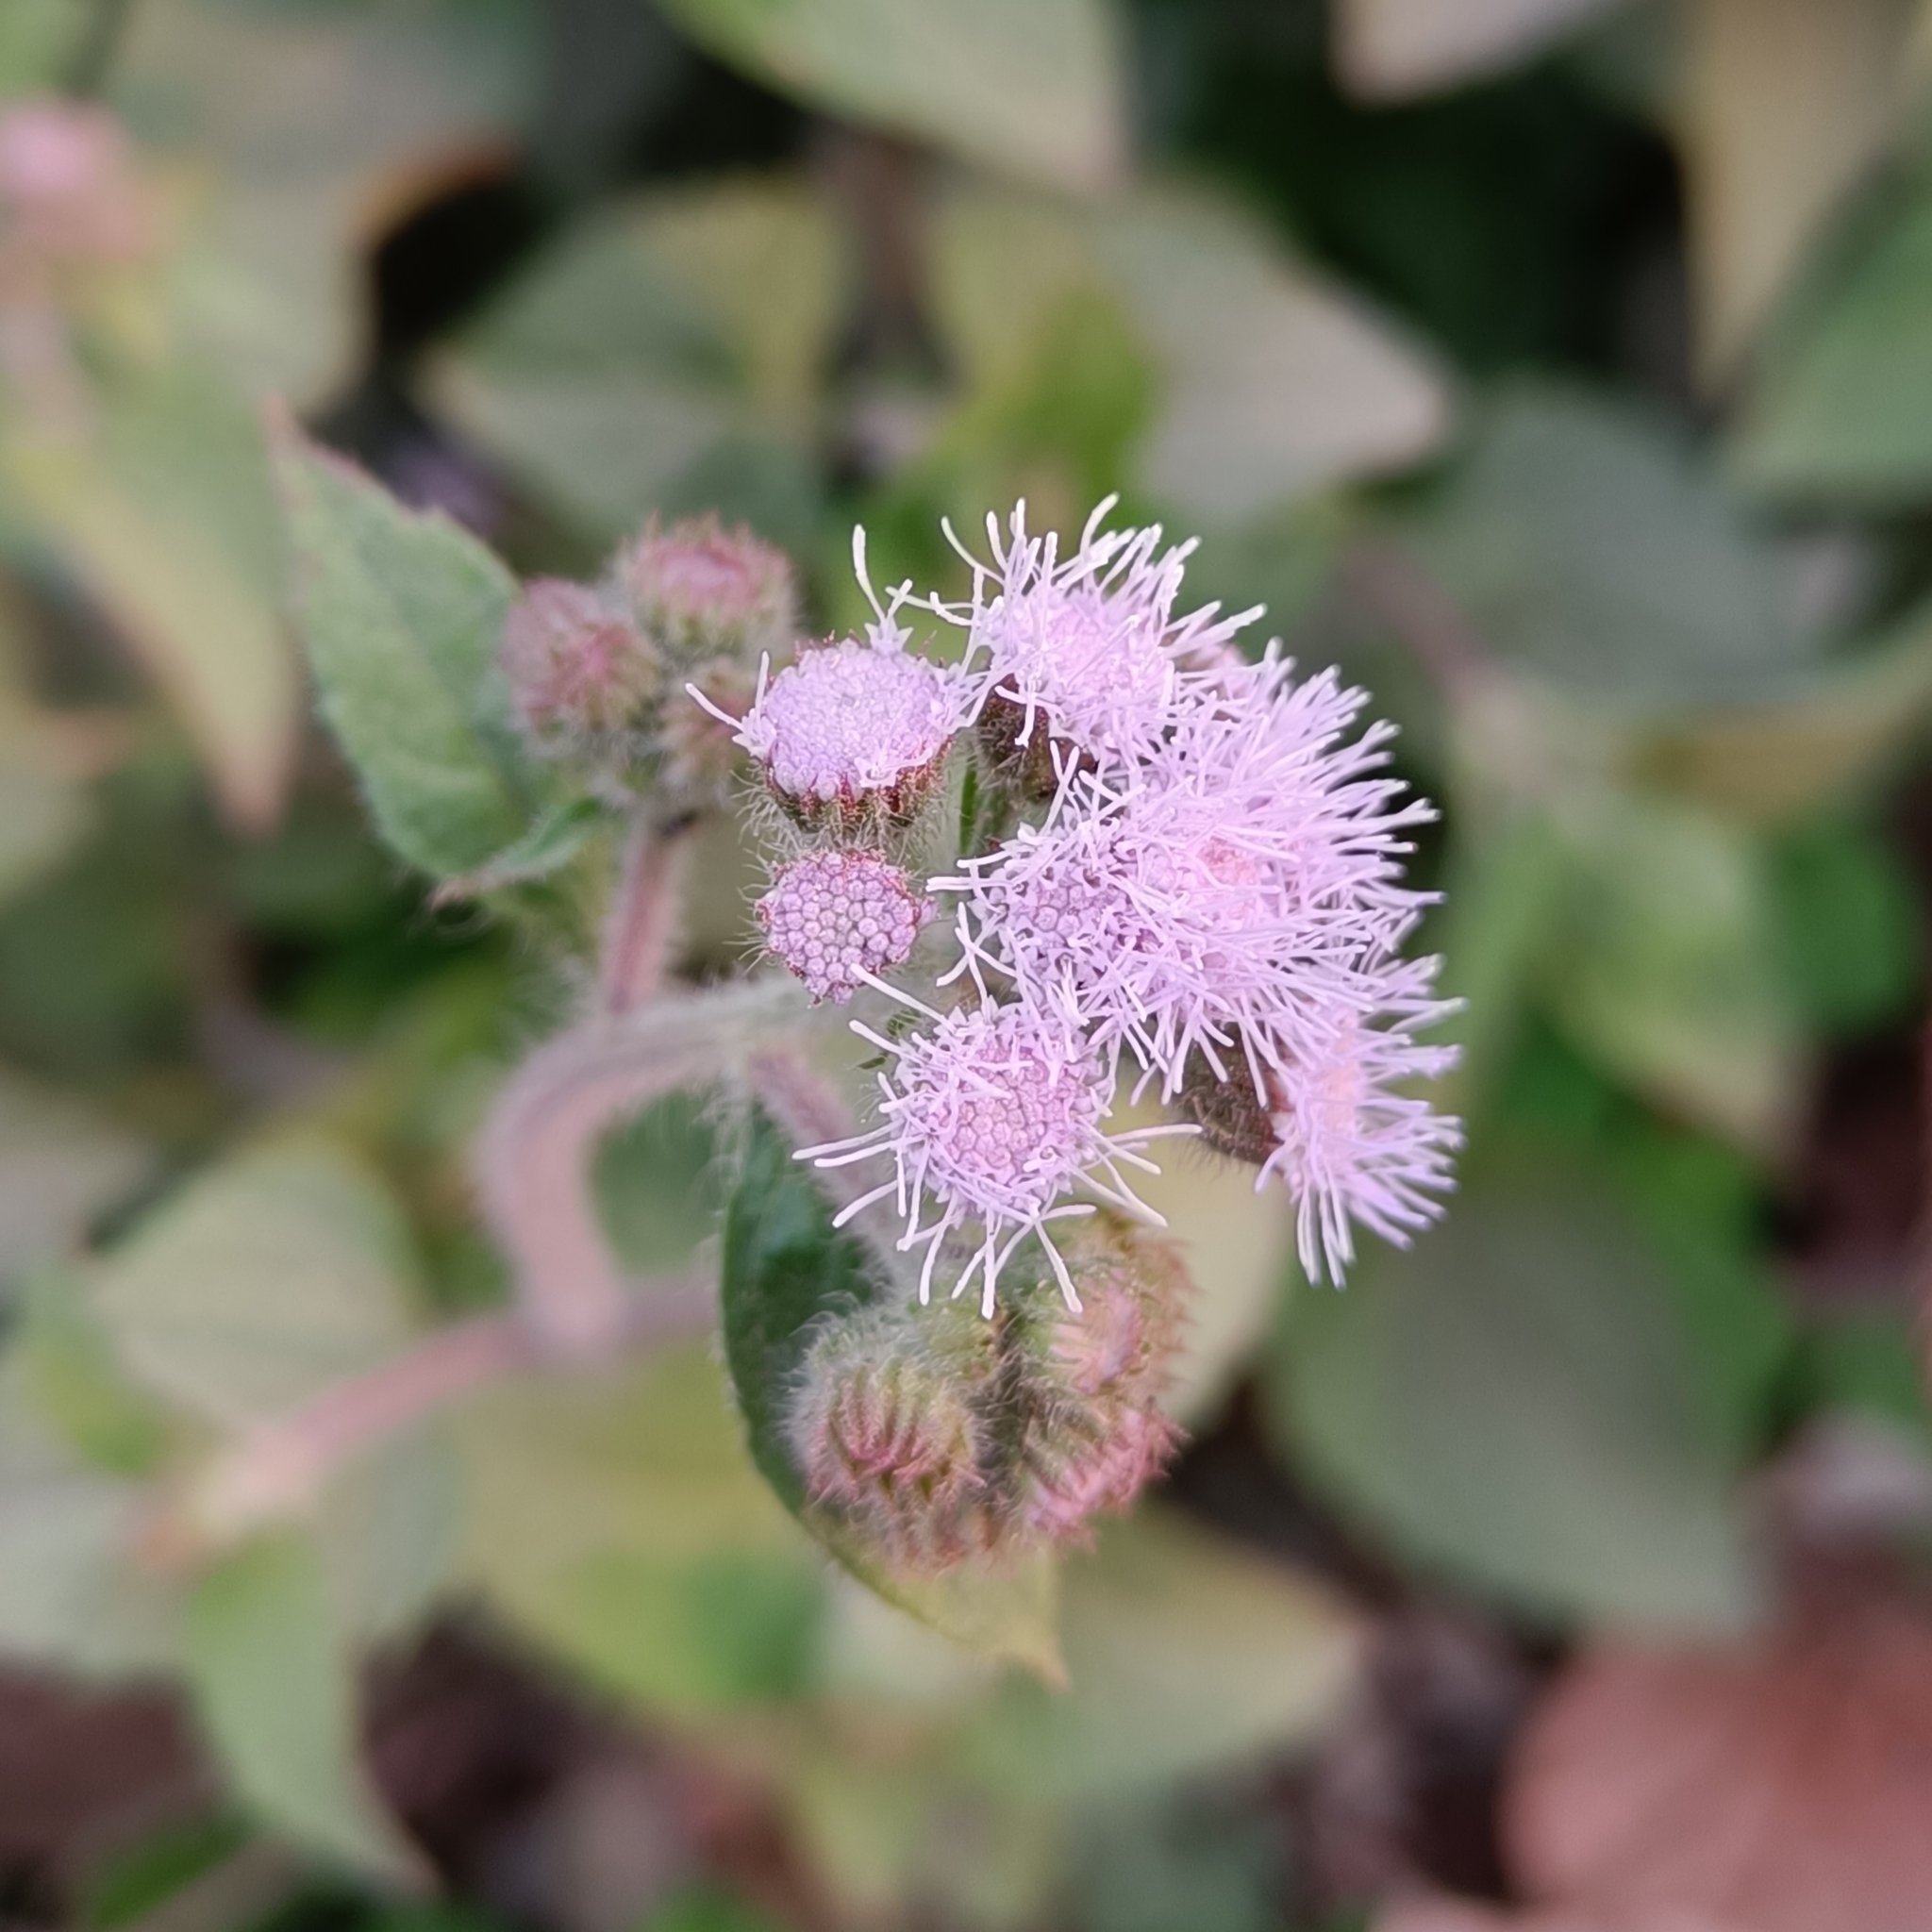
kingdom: Plantae
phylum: Tracheophyta
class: Magnoliopsida
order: Asterales
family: Asteraceae
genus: Ageratum
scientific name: Ageratum houstonianum
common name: Bluemink
